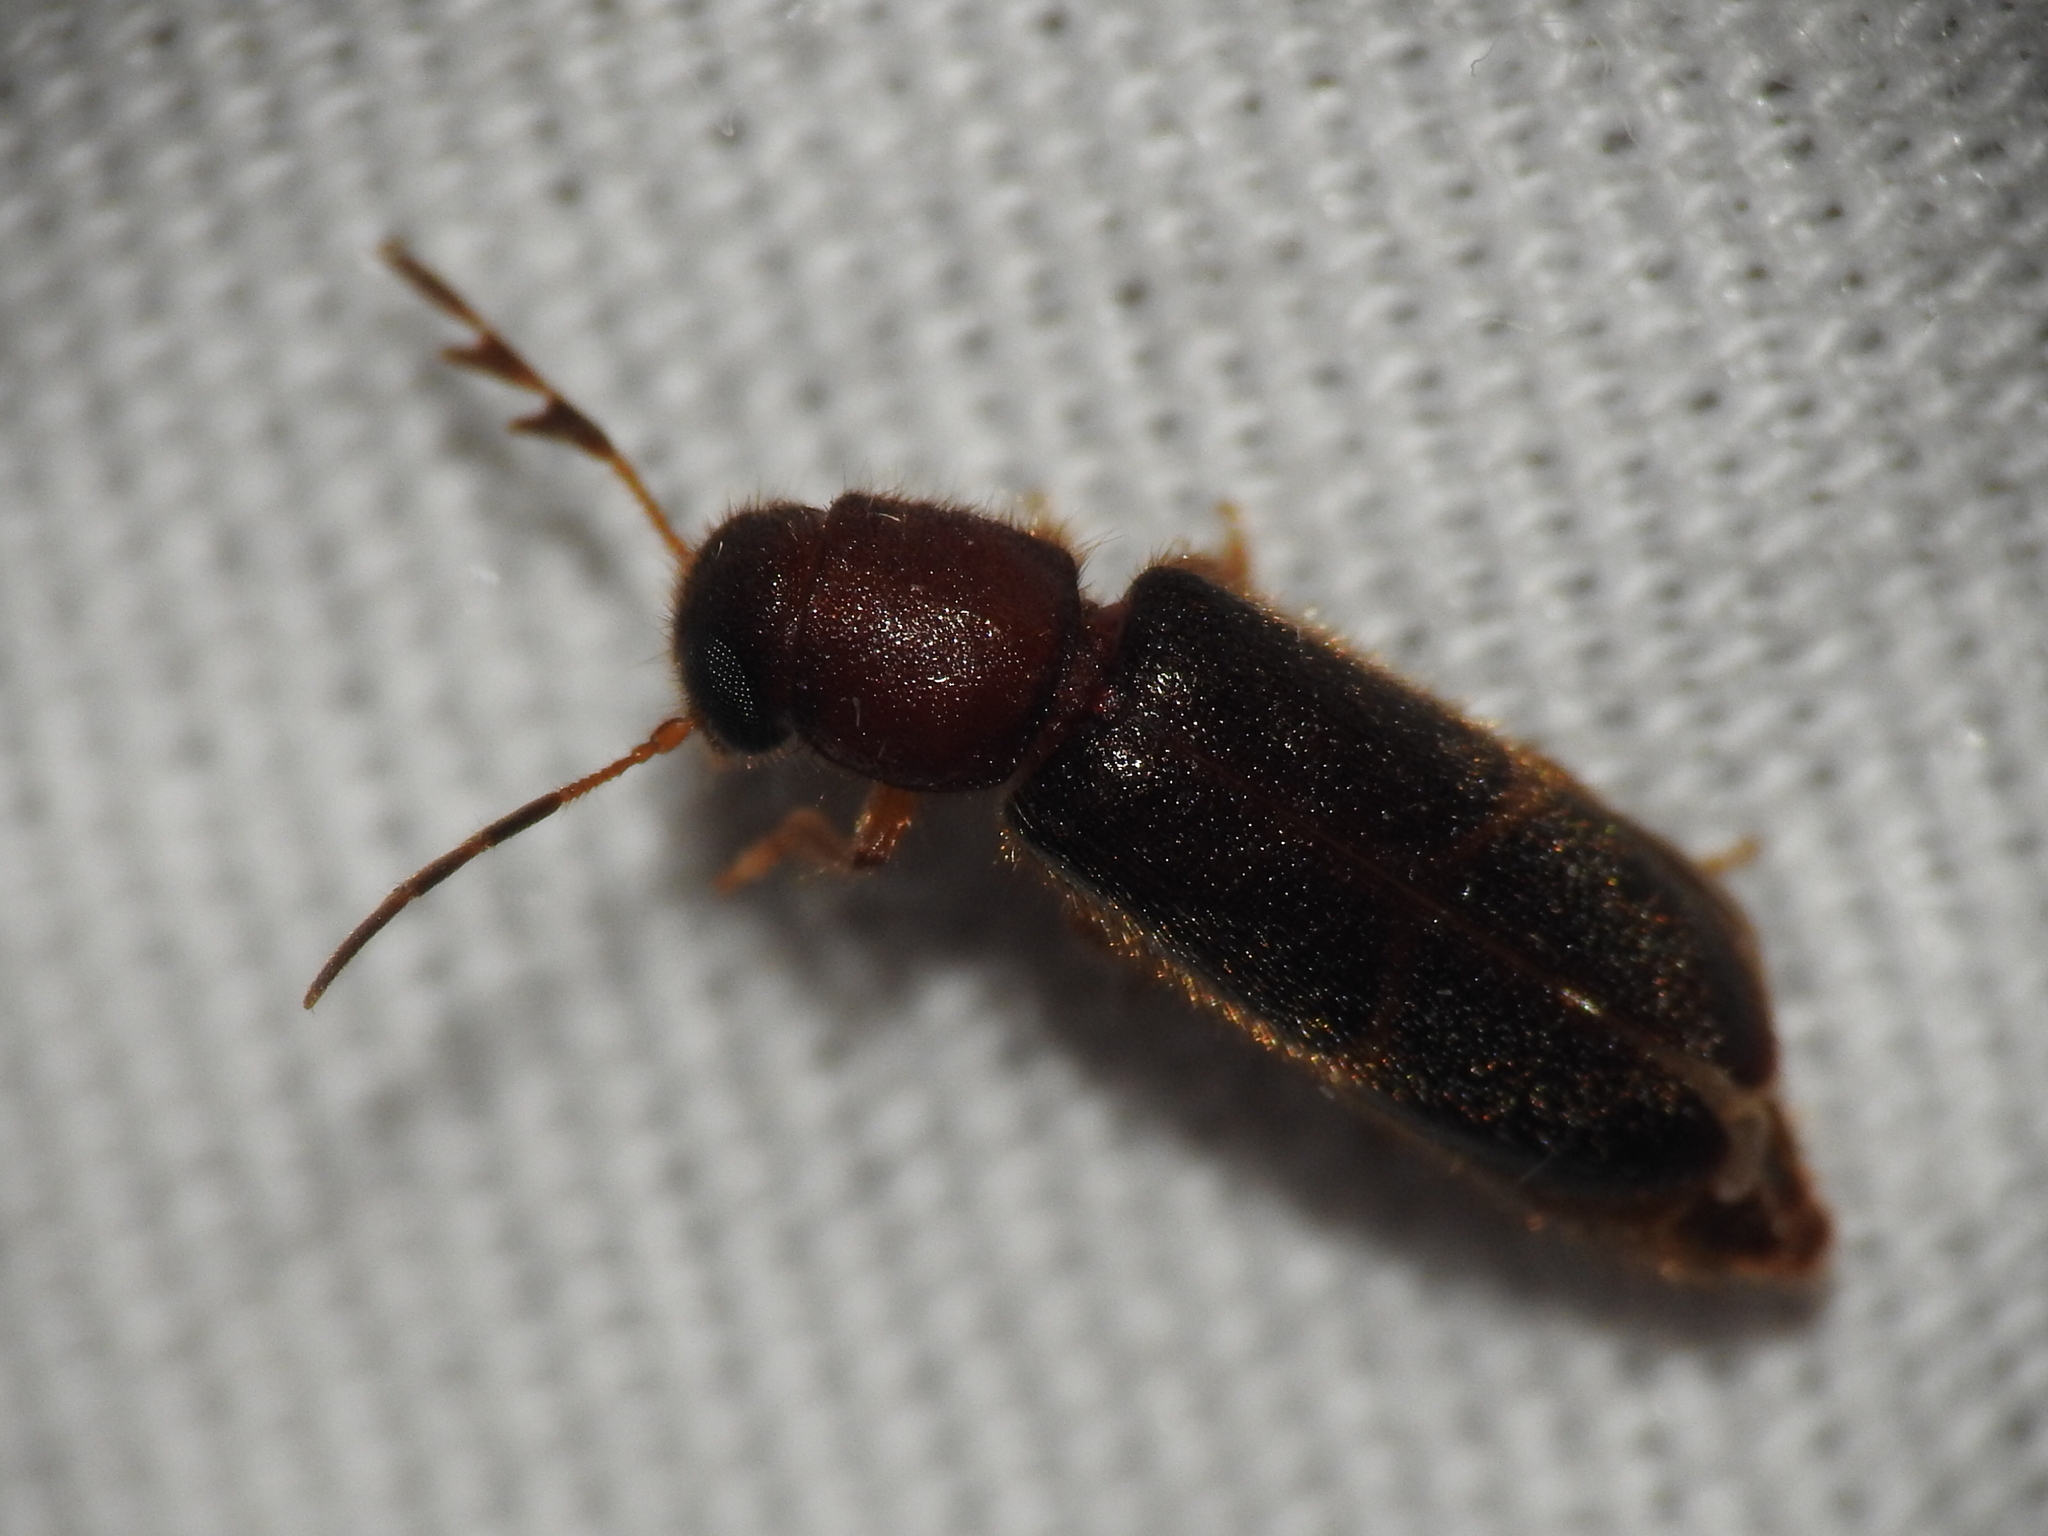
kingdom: Animalia
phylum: Arthropoda
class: Insecta
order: Coleoptera
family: Cleridae
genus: Neorthopleura
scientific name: Neorthopleura texana
